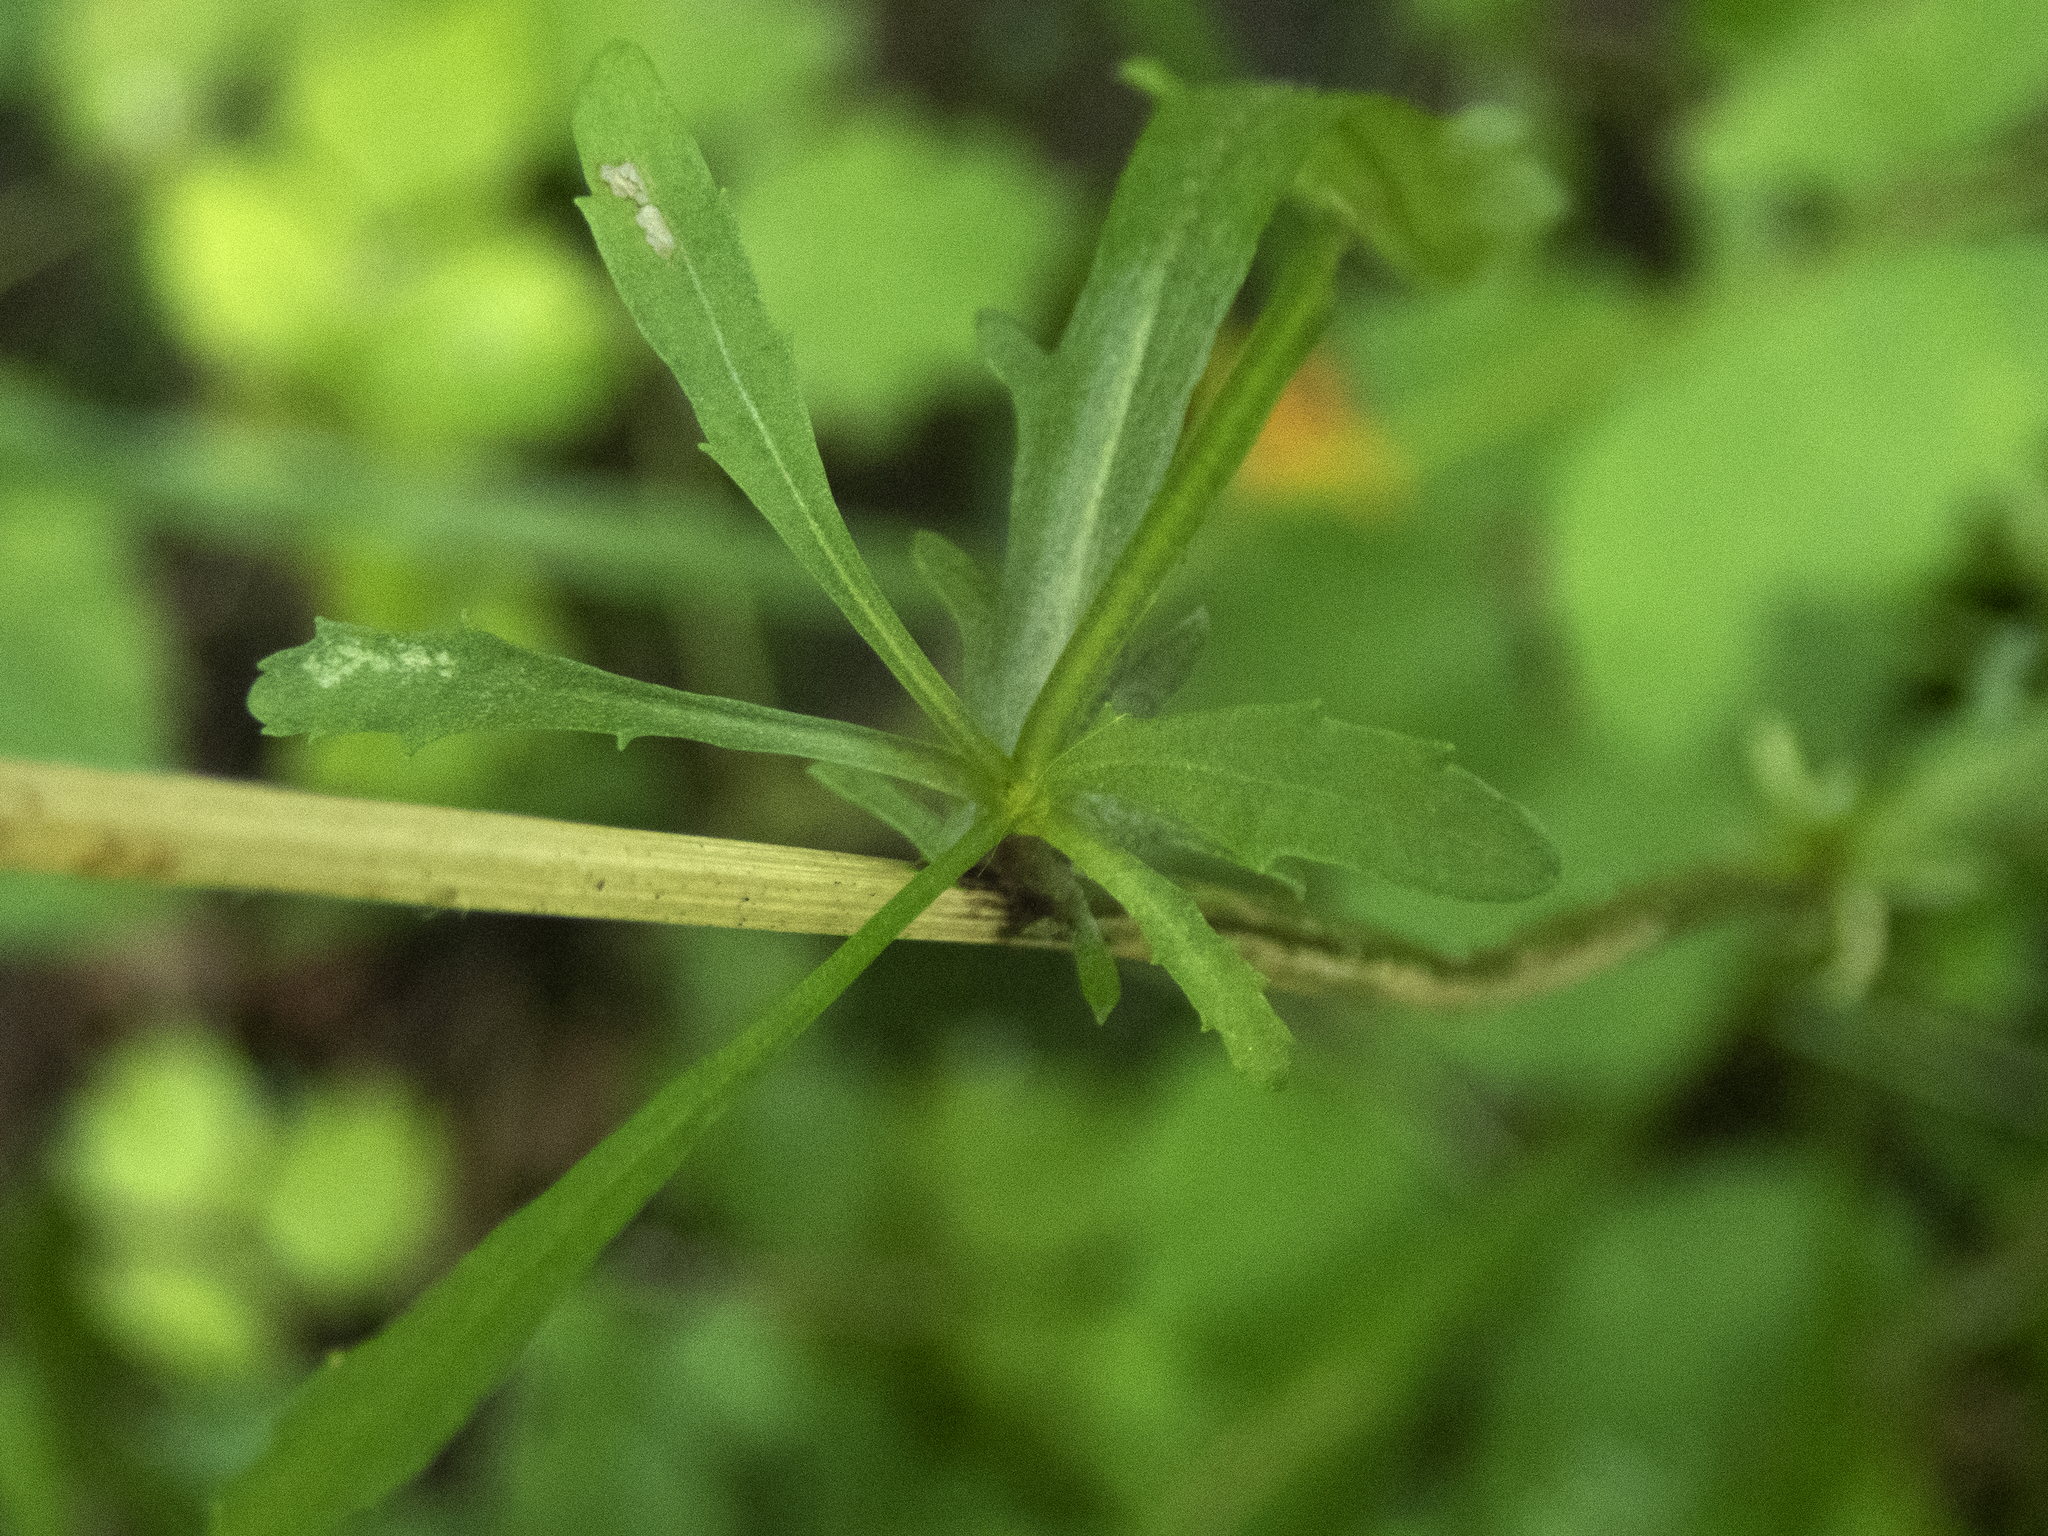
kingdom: Plantae
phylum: Tracheophyta
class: Magnoliopsida
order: Asterales
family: Asteraceae
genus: Leucanthemum
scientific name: Leucanthemum vulgare
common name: Oxeye daisy
